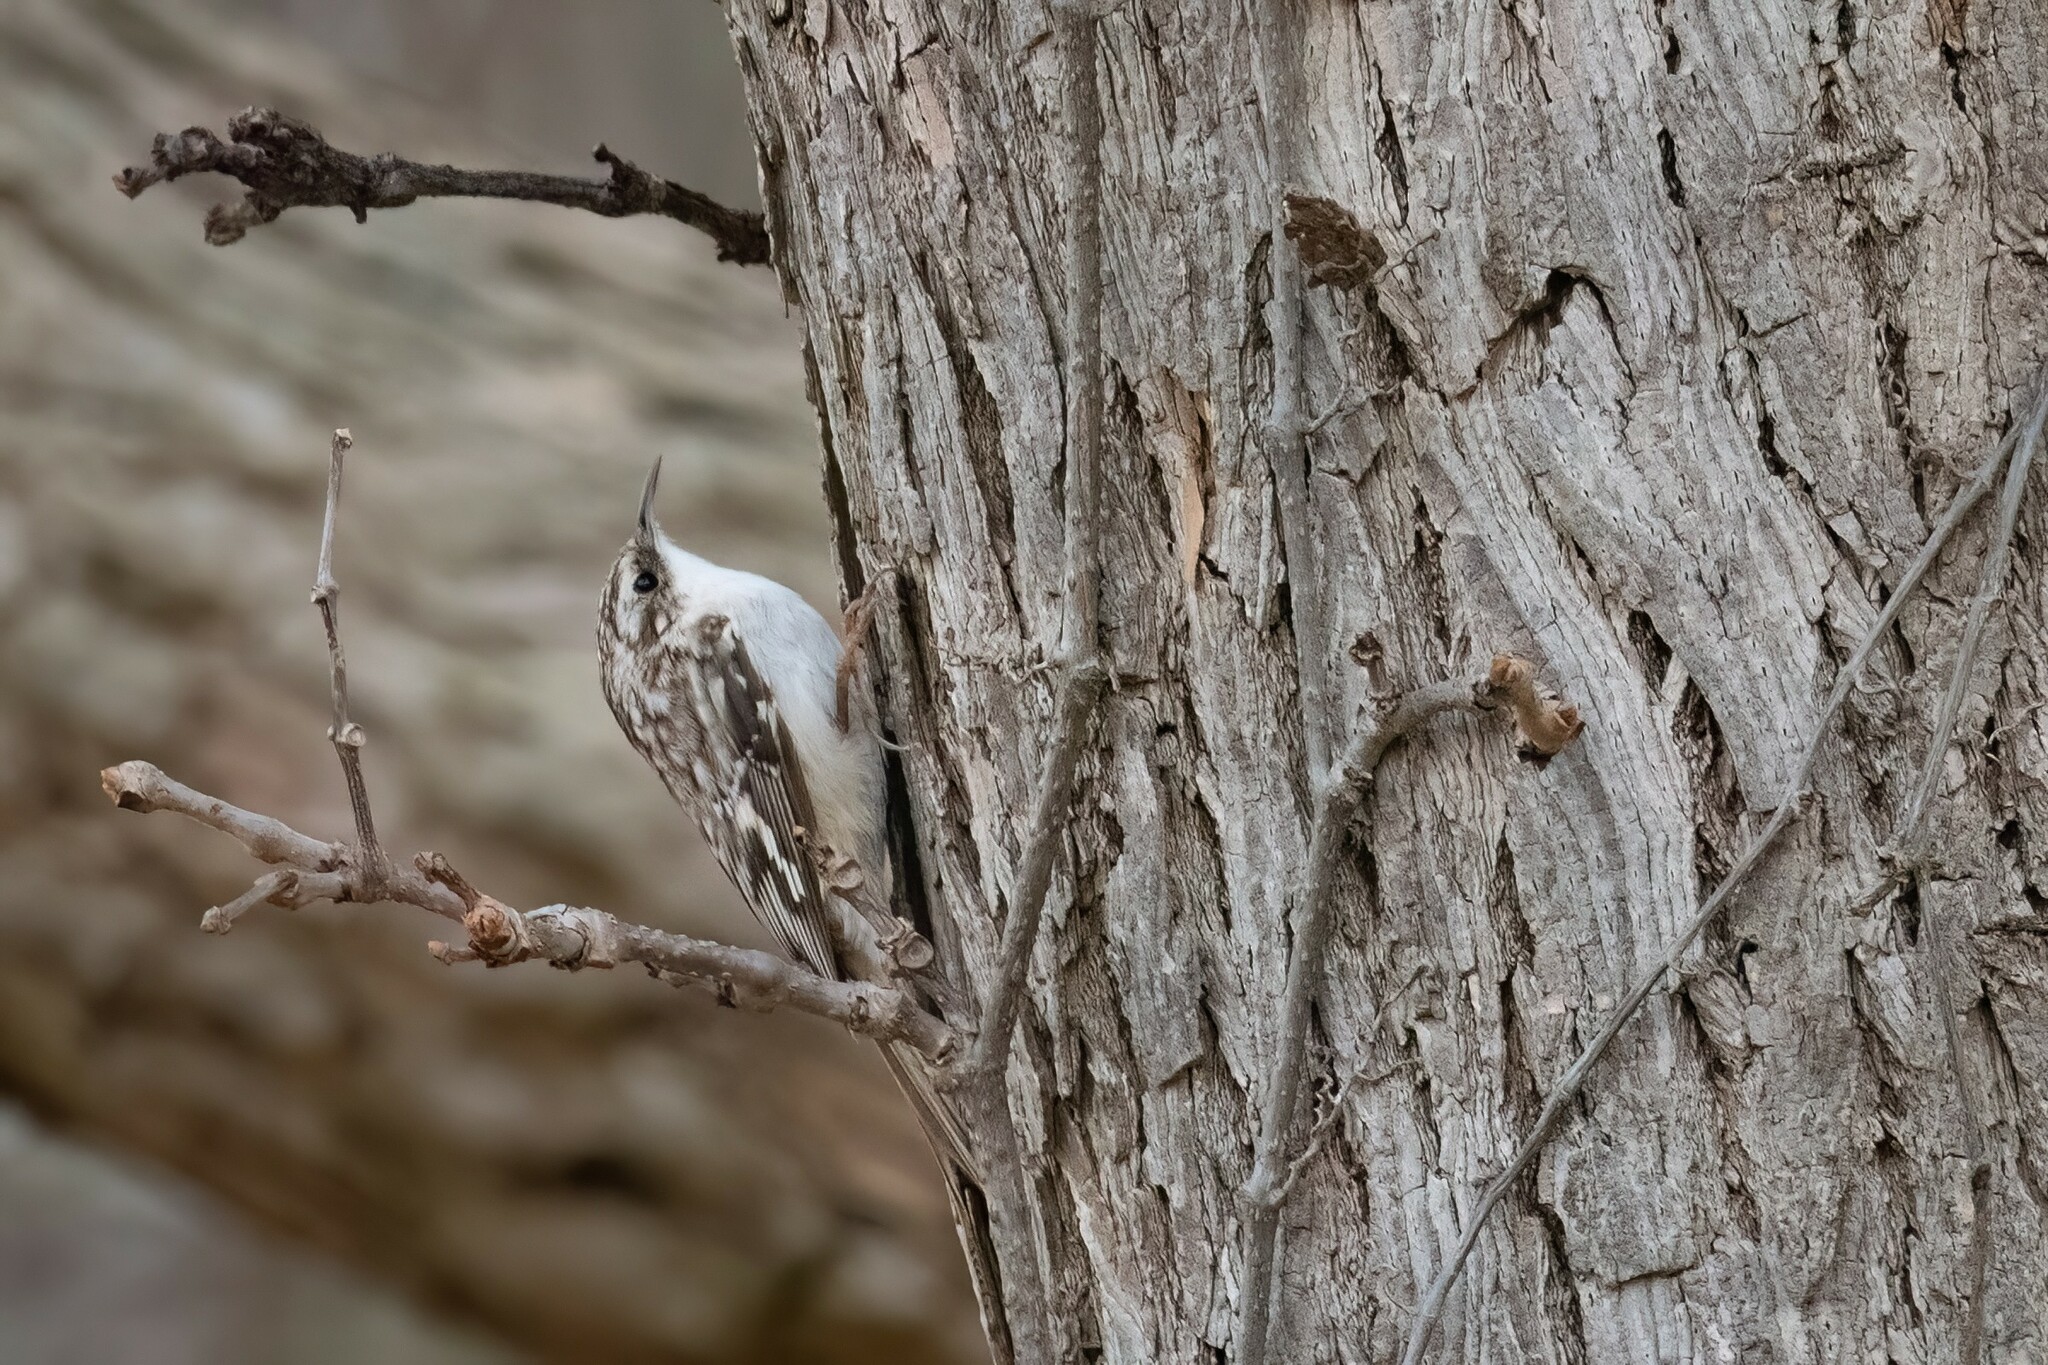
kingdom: Animalia
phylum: Chordata
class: Aves
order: Passeriformes
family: Certhiidae
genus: Certhia
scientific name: Certhia americana
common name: Brown creeper
